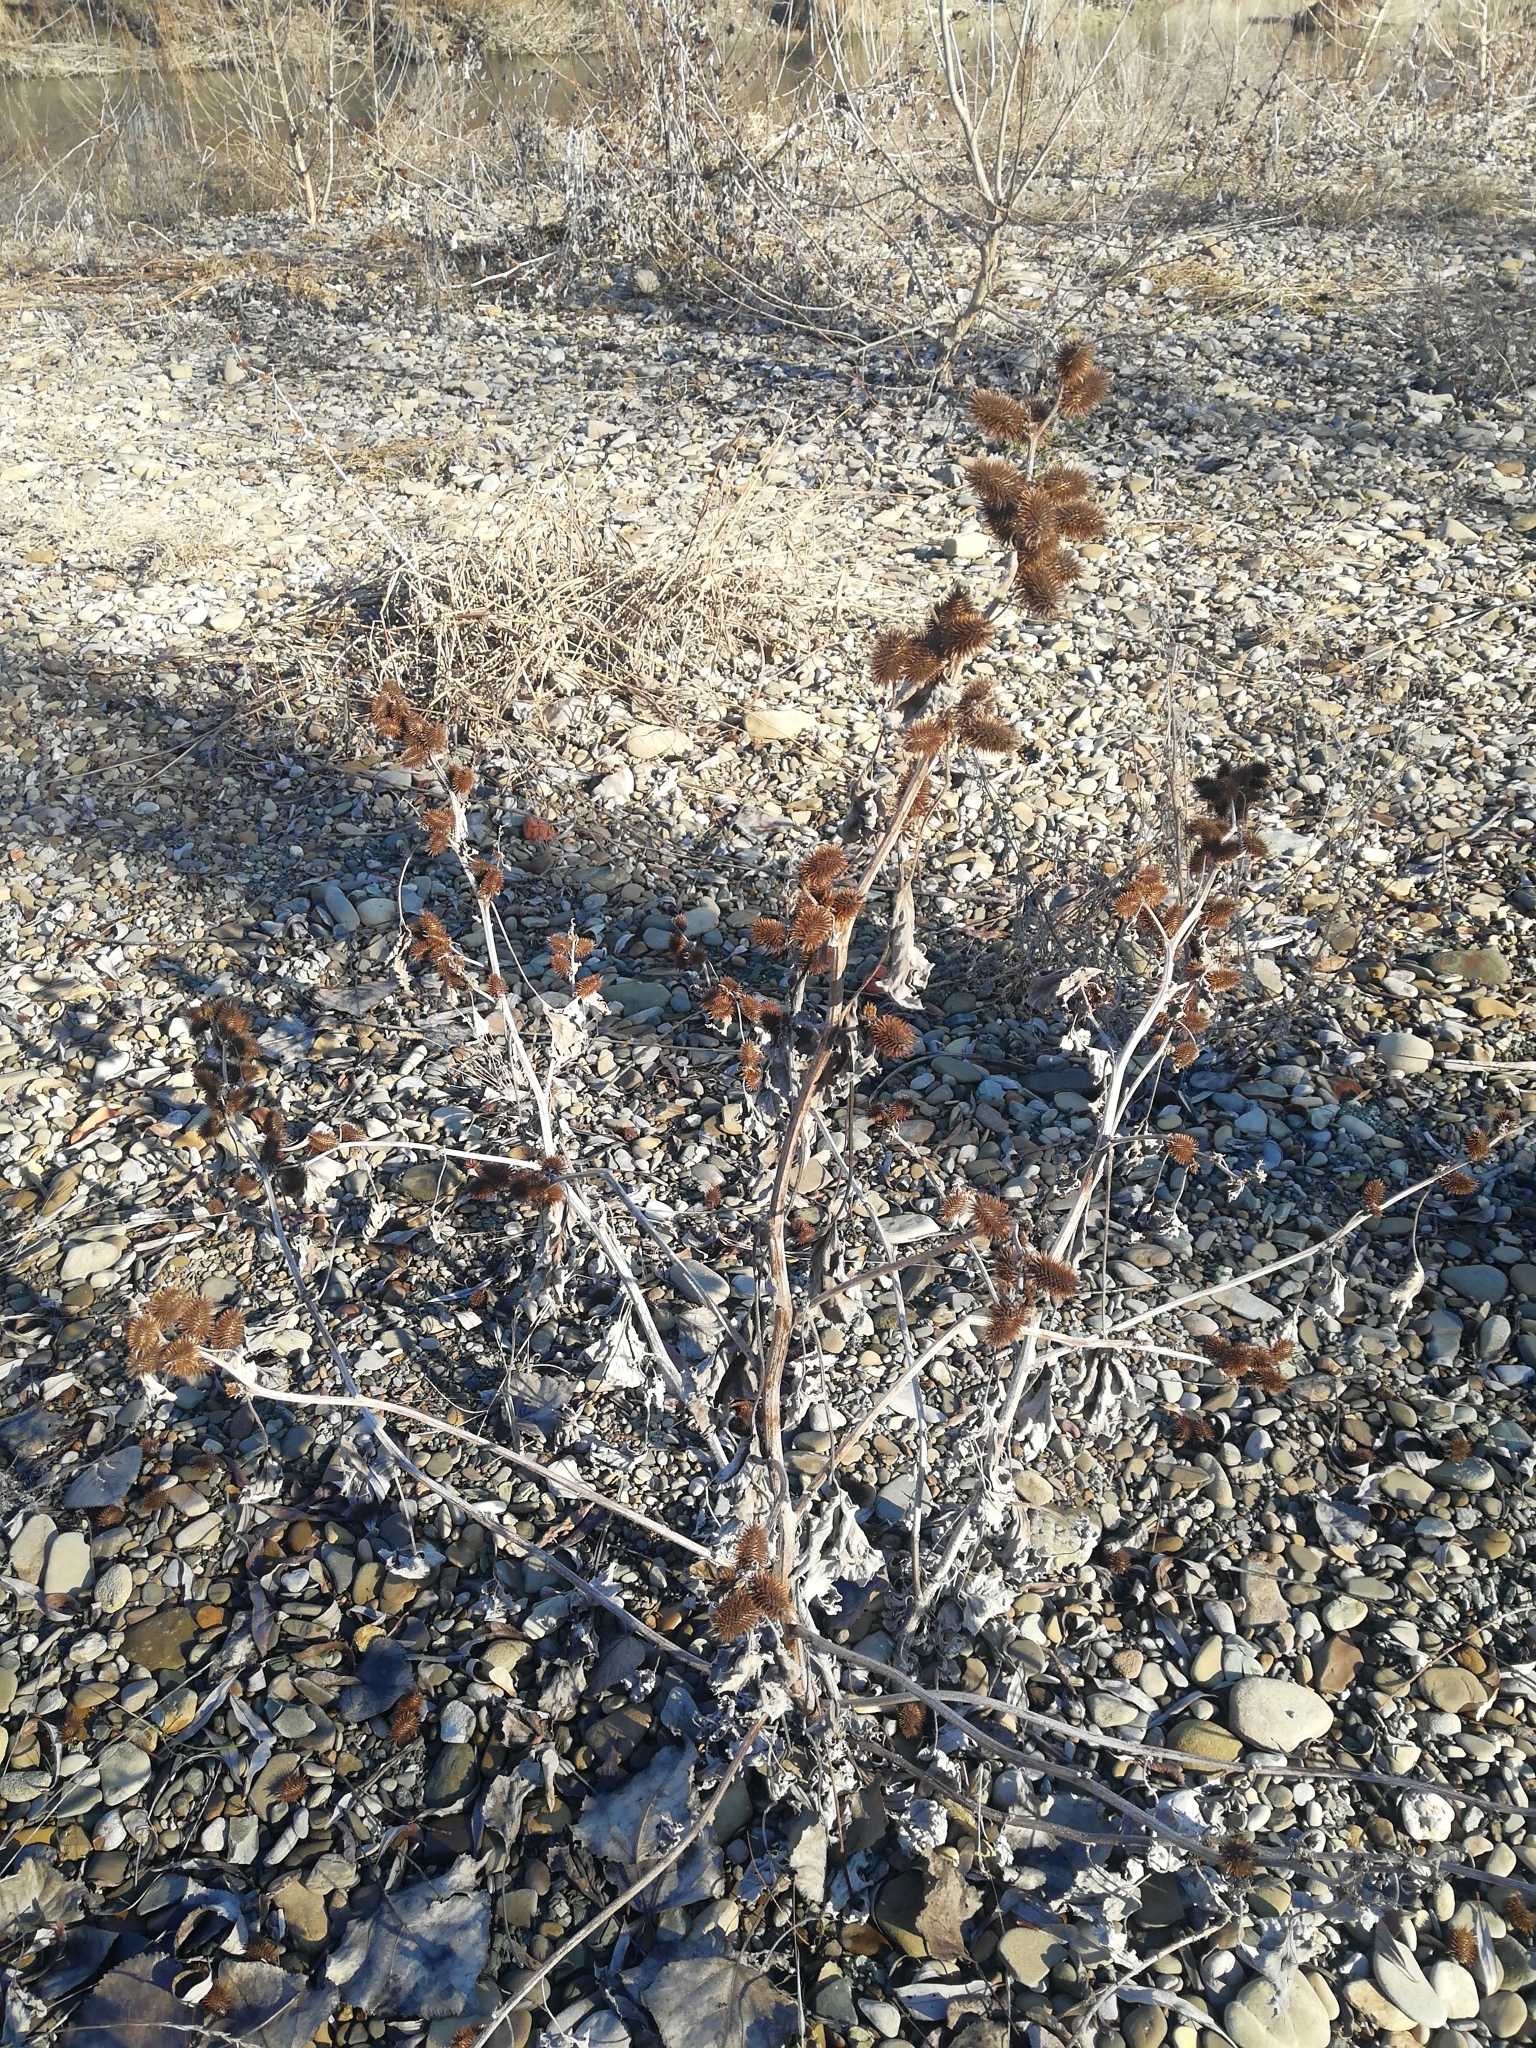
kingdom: Plantae
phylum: Tracheophyta
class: Magnoliopsida
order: Asterales
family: Asteraceae
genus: Xanthium
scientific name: Xanthium strumarium
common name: Rough cocklebur
